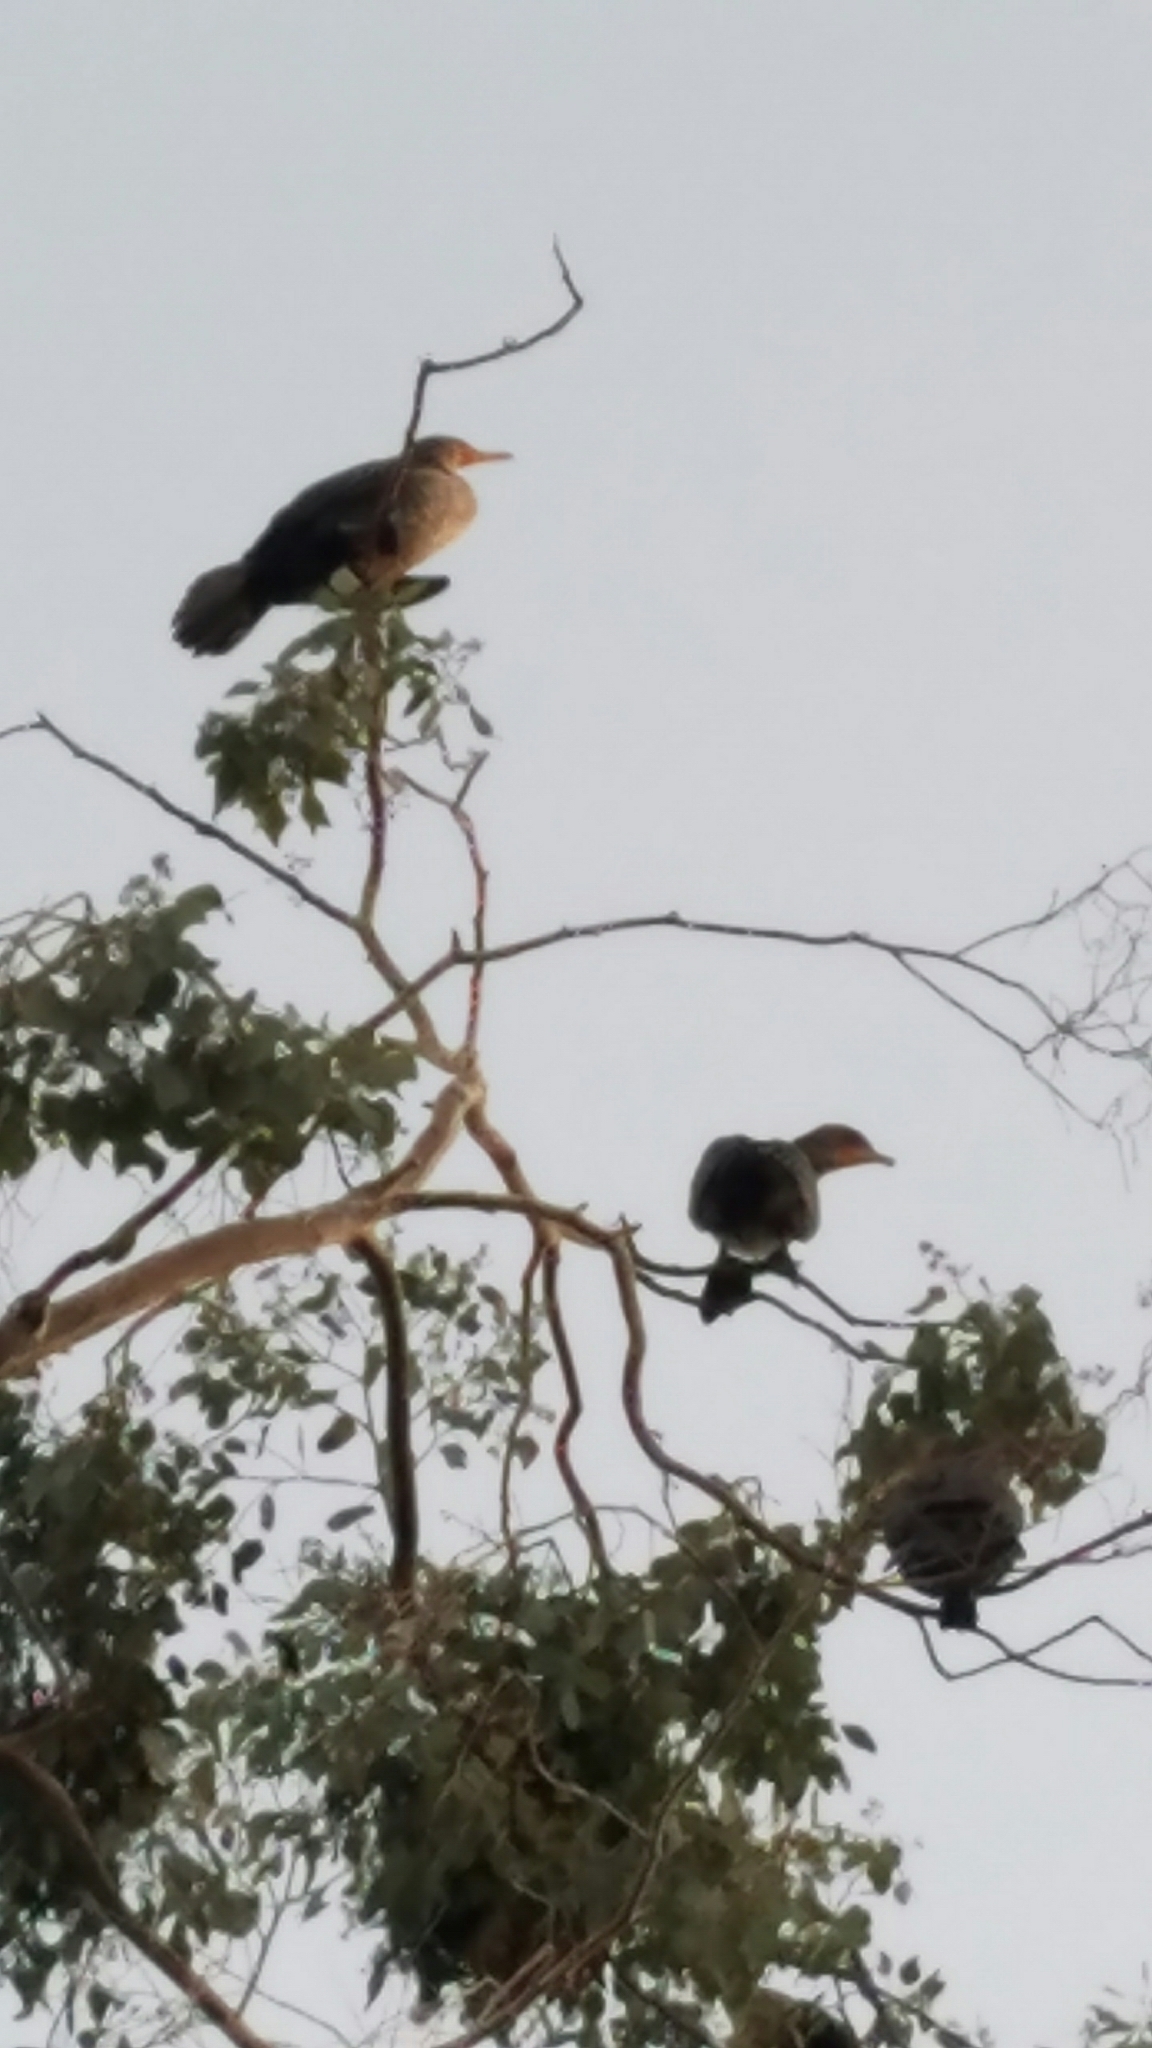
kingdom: Animalia
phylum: Chordata
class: Aves
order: Suliformes
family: Phalacrocoracidae
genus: Phalacrocorax
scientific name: Phalacrocorax auritus
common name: Double-crested cormorant
